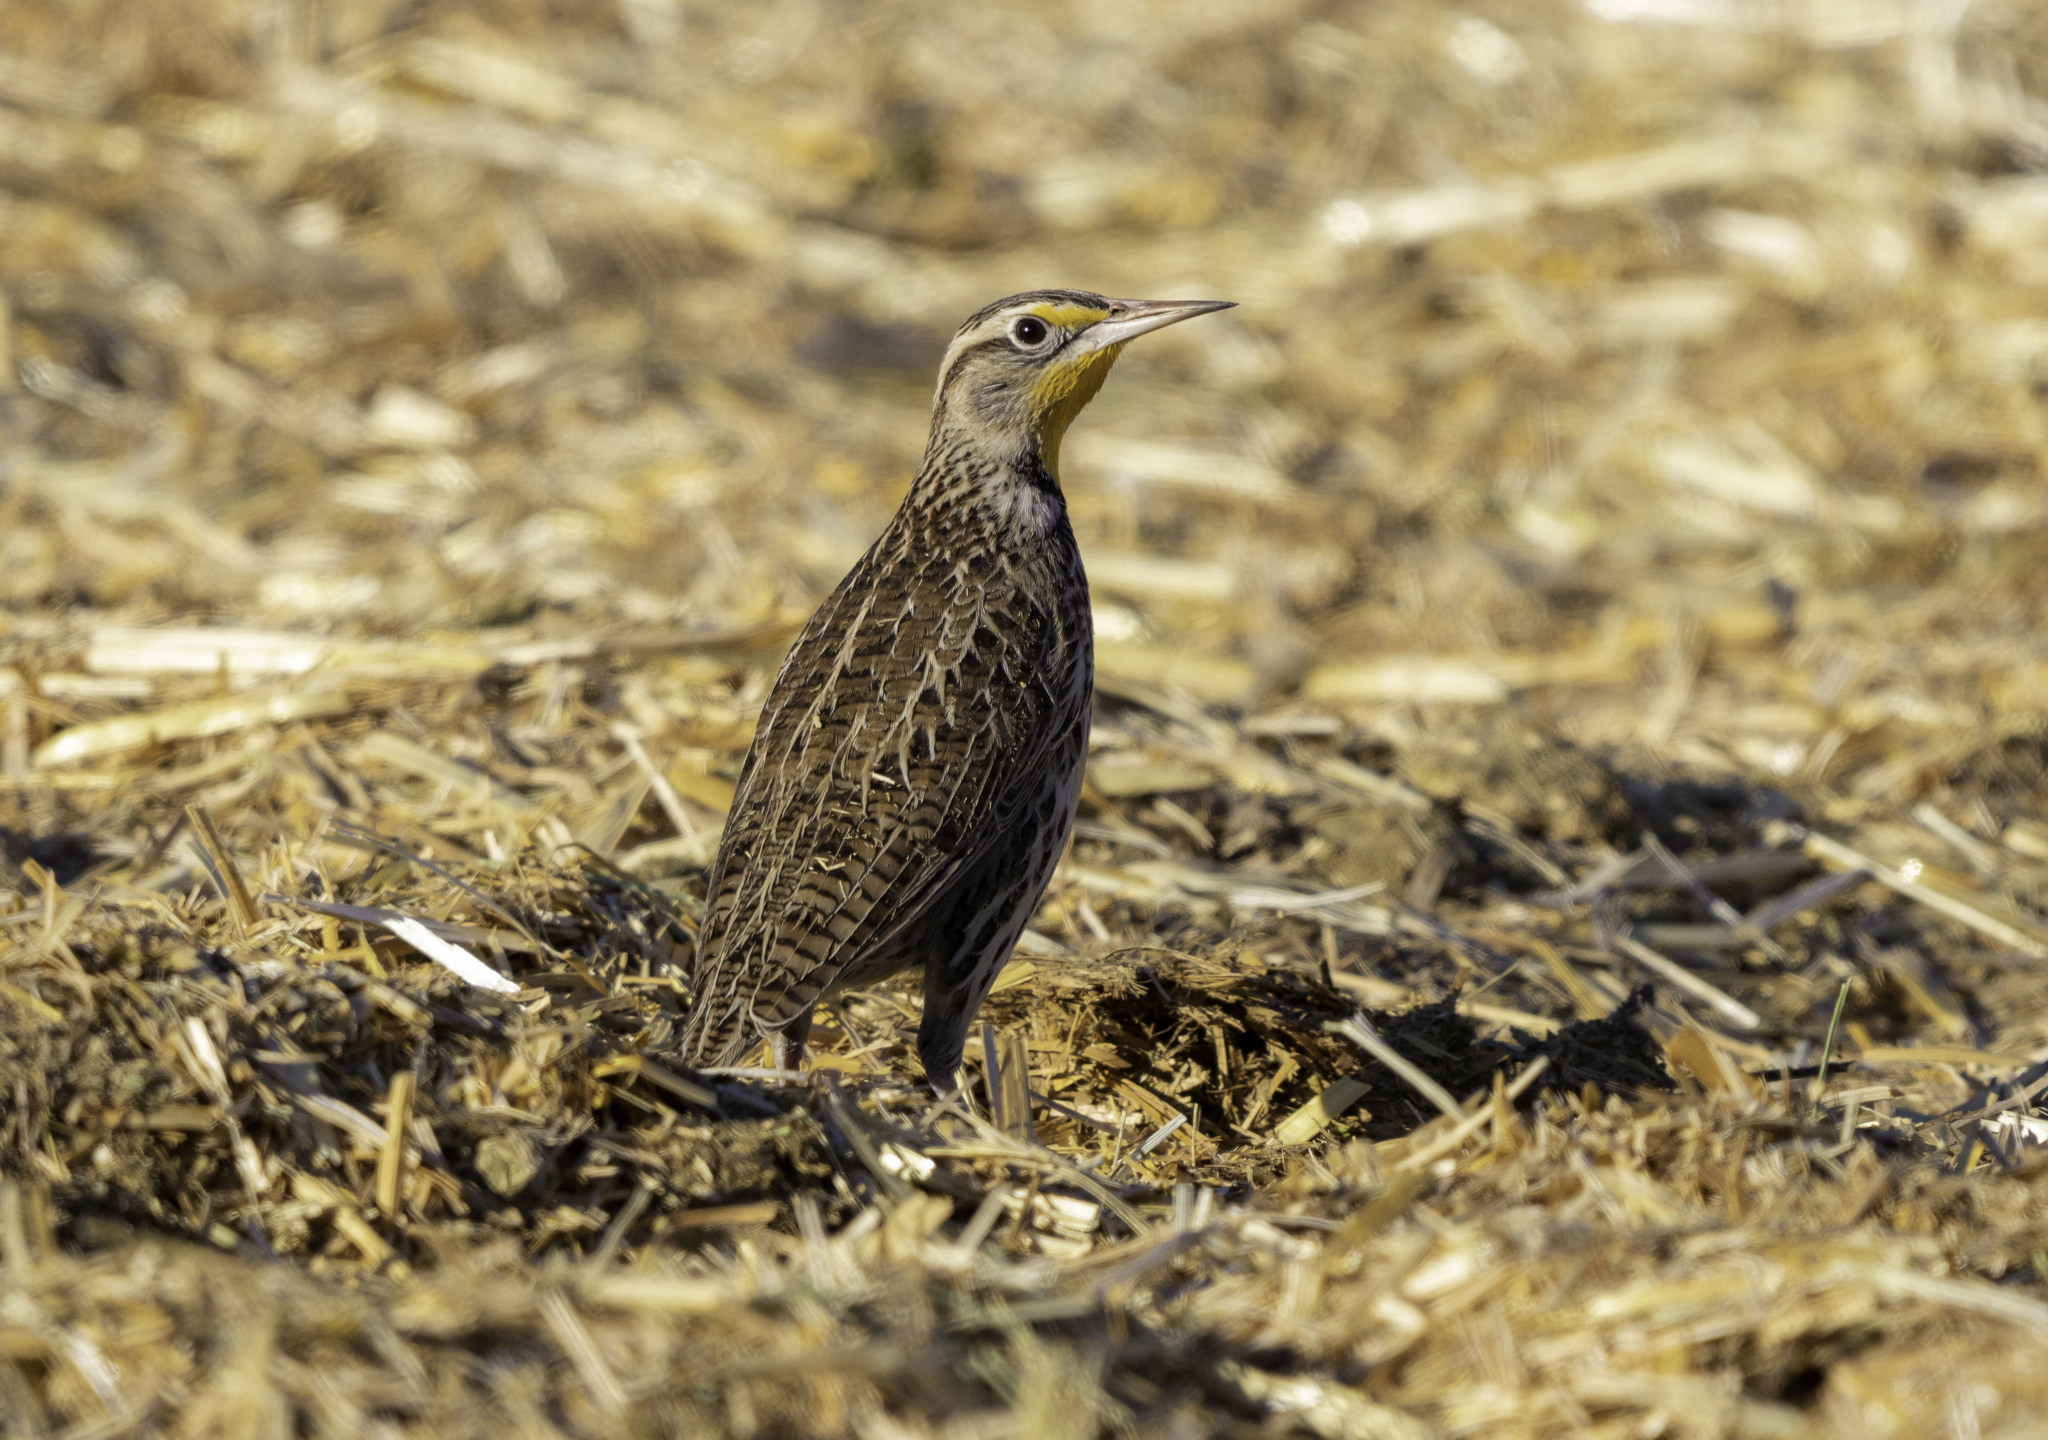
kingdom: Animalia
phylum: Chordata
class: Aves
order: Passeriformes
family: Icteridae
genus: Sturnella
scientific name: Sturnella neglecta
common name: Western meadowlark
